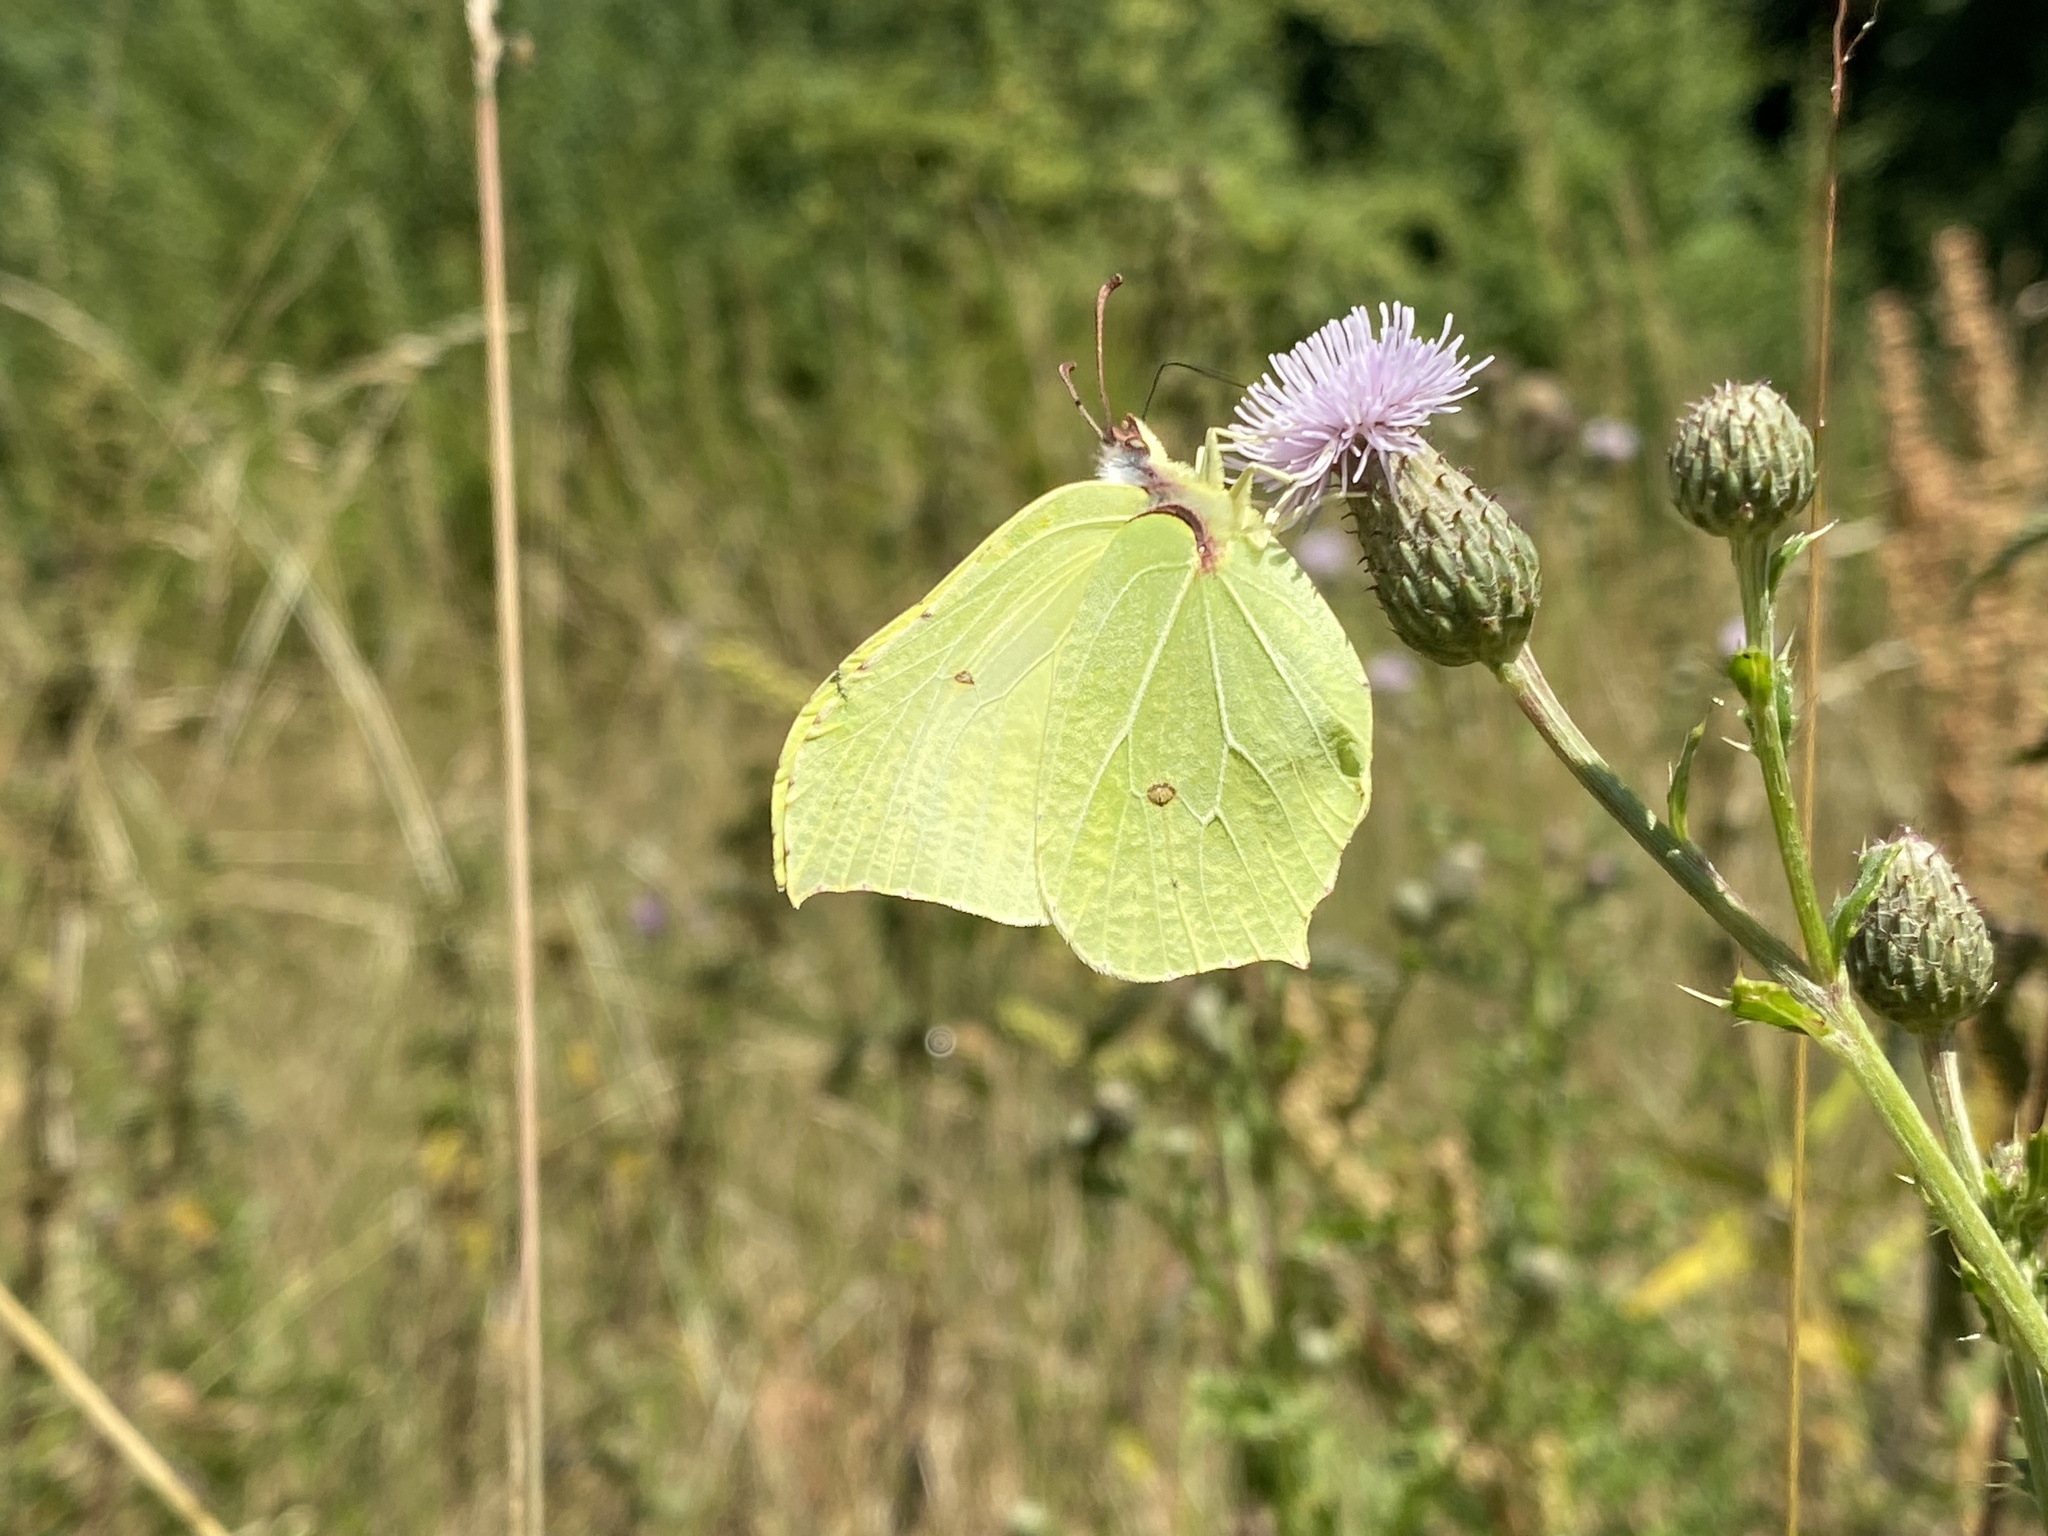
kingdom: Animalia
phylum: Arthropoda
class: Insecta
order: Lepidoptera
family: Pieridae
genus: Gonepteryx
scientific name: Gonepteryx rhamni
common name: Brimstone
